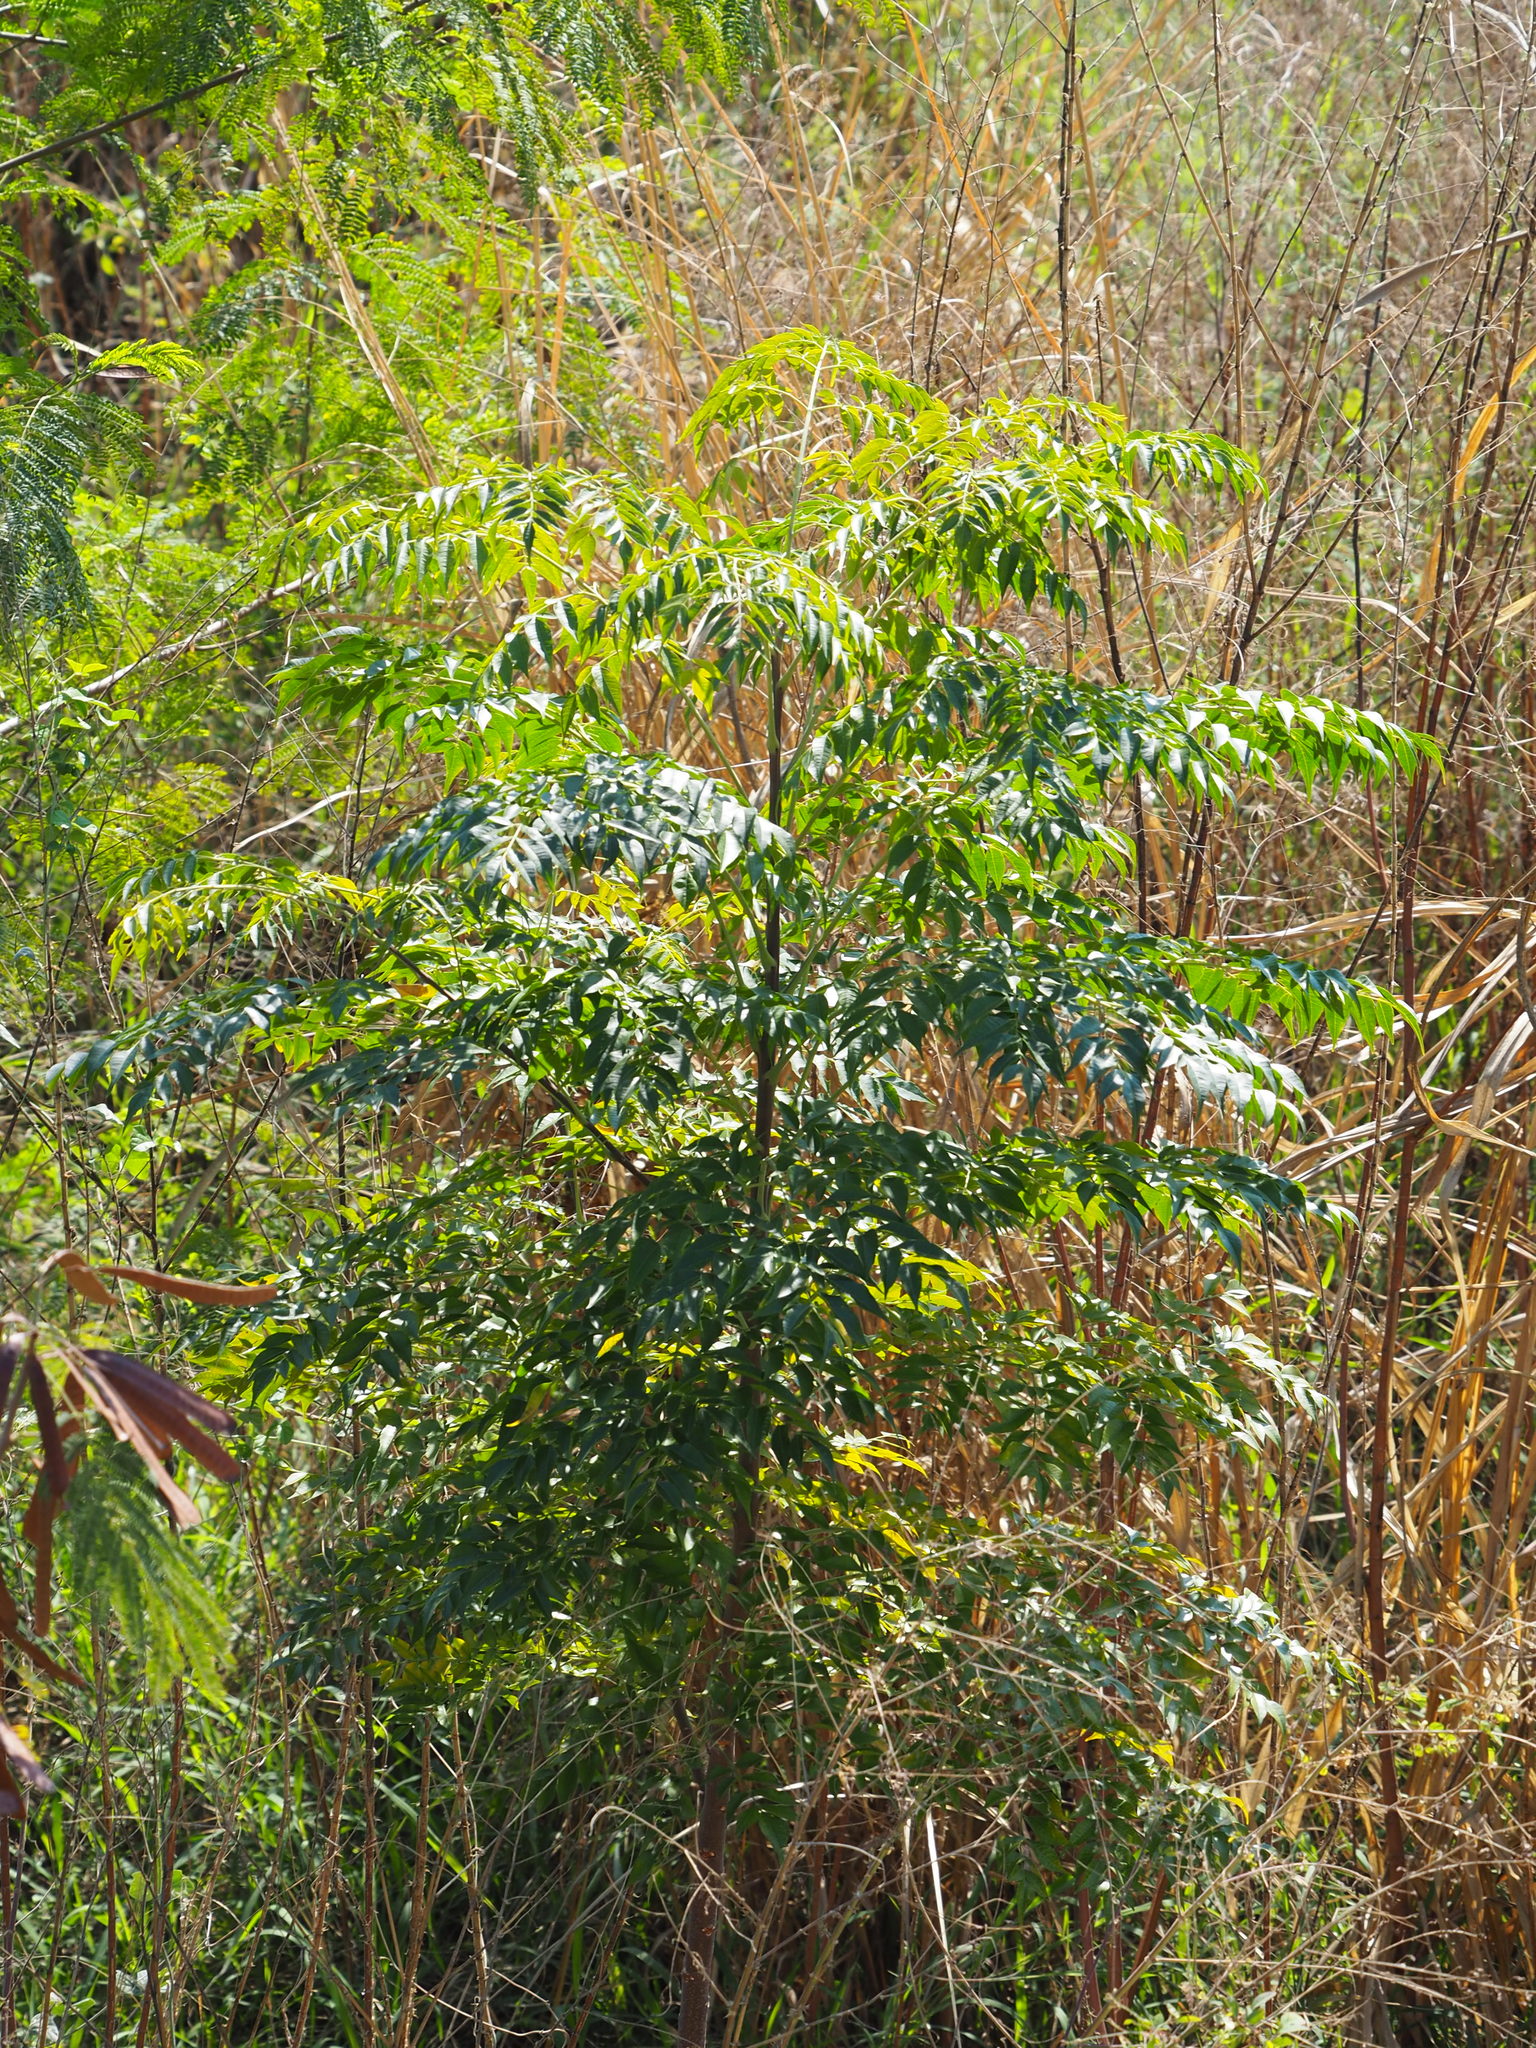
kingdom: Plantae
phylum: Tracheophyta
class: Magnoliopsida
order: Sapindales
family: Meliaceae
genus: Melia
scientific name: Melia azedarach
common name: Chinaberrytree
